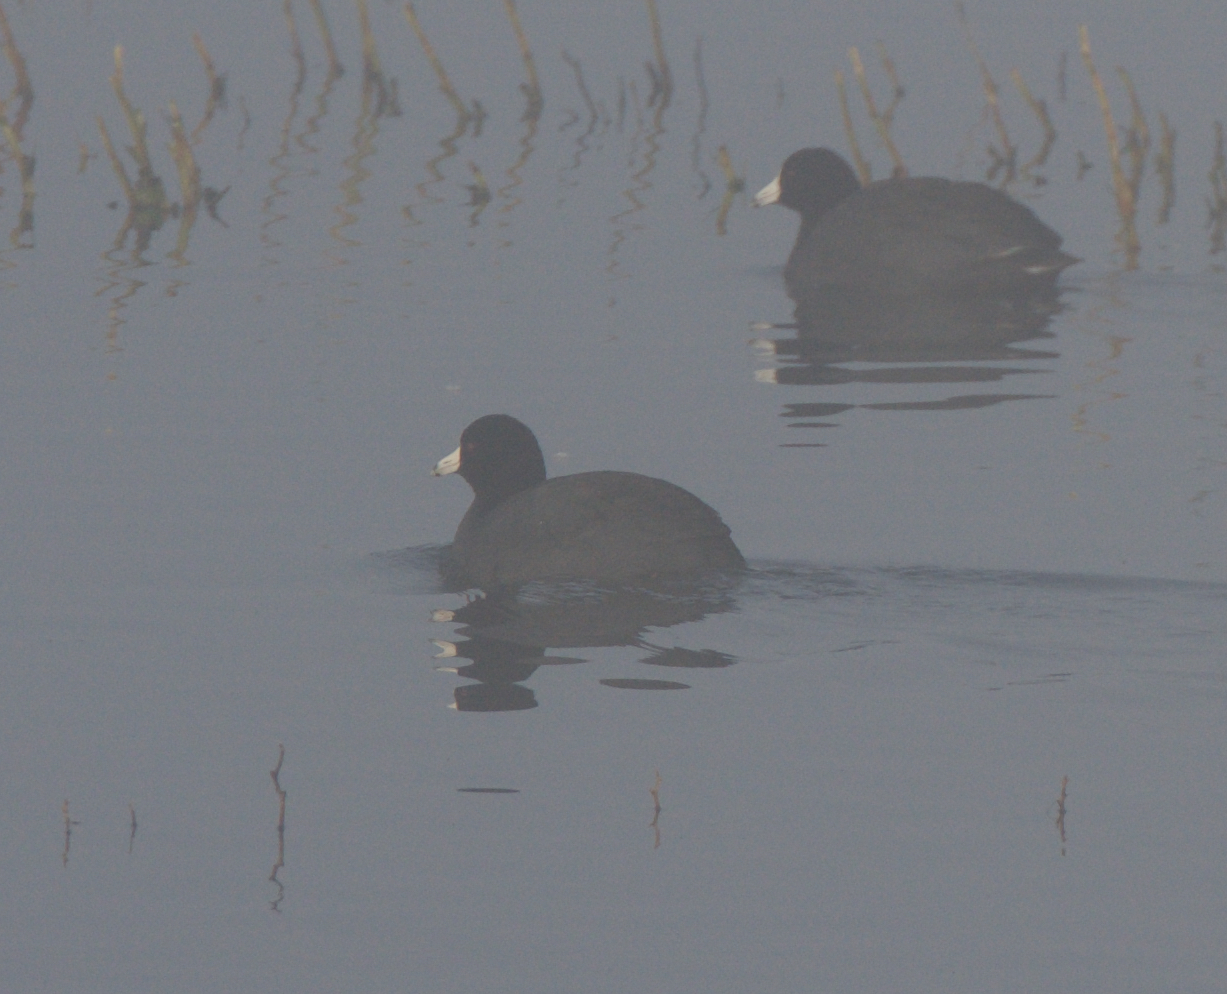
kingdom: Animalia
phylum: Chordata
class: Aves
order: Gruiformes
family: Rallidae
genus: Fulica
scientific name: Fulica americana
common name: American coot
